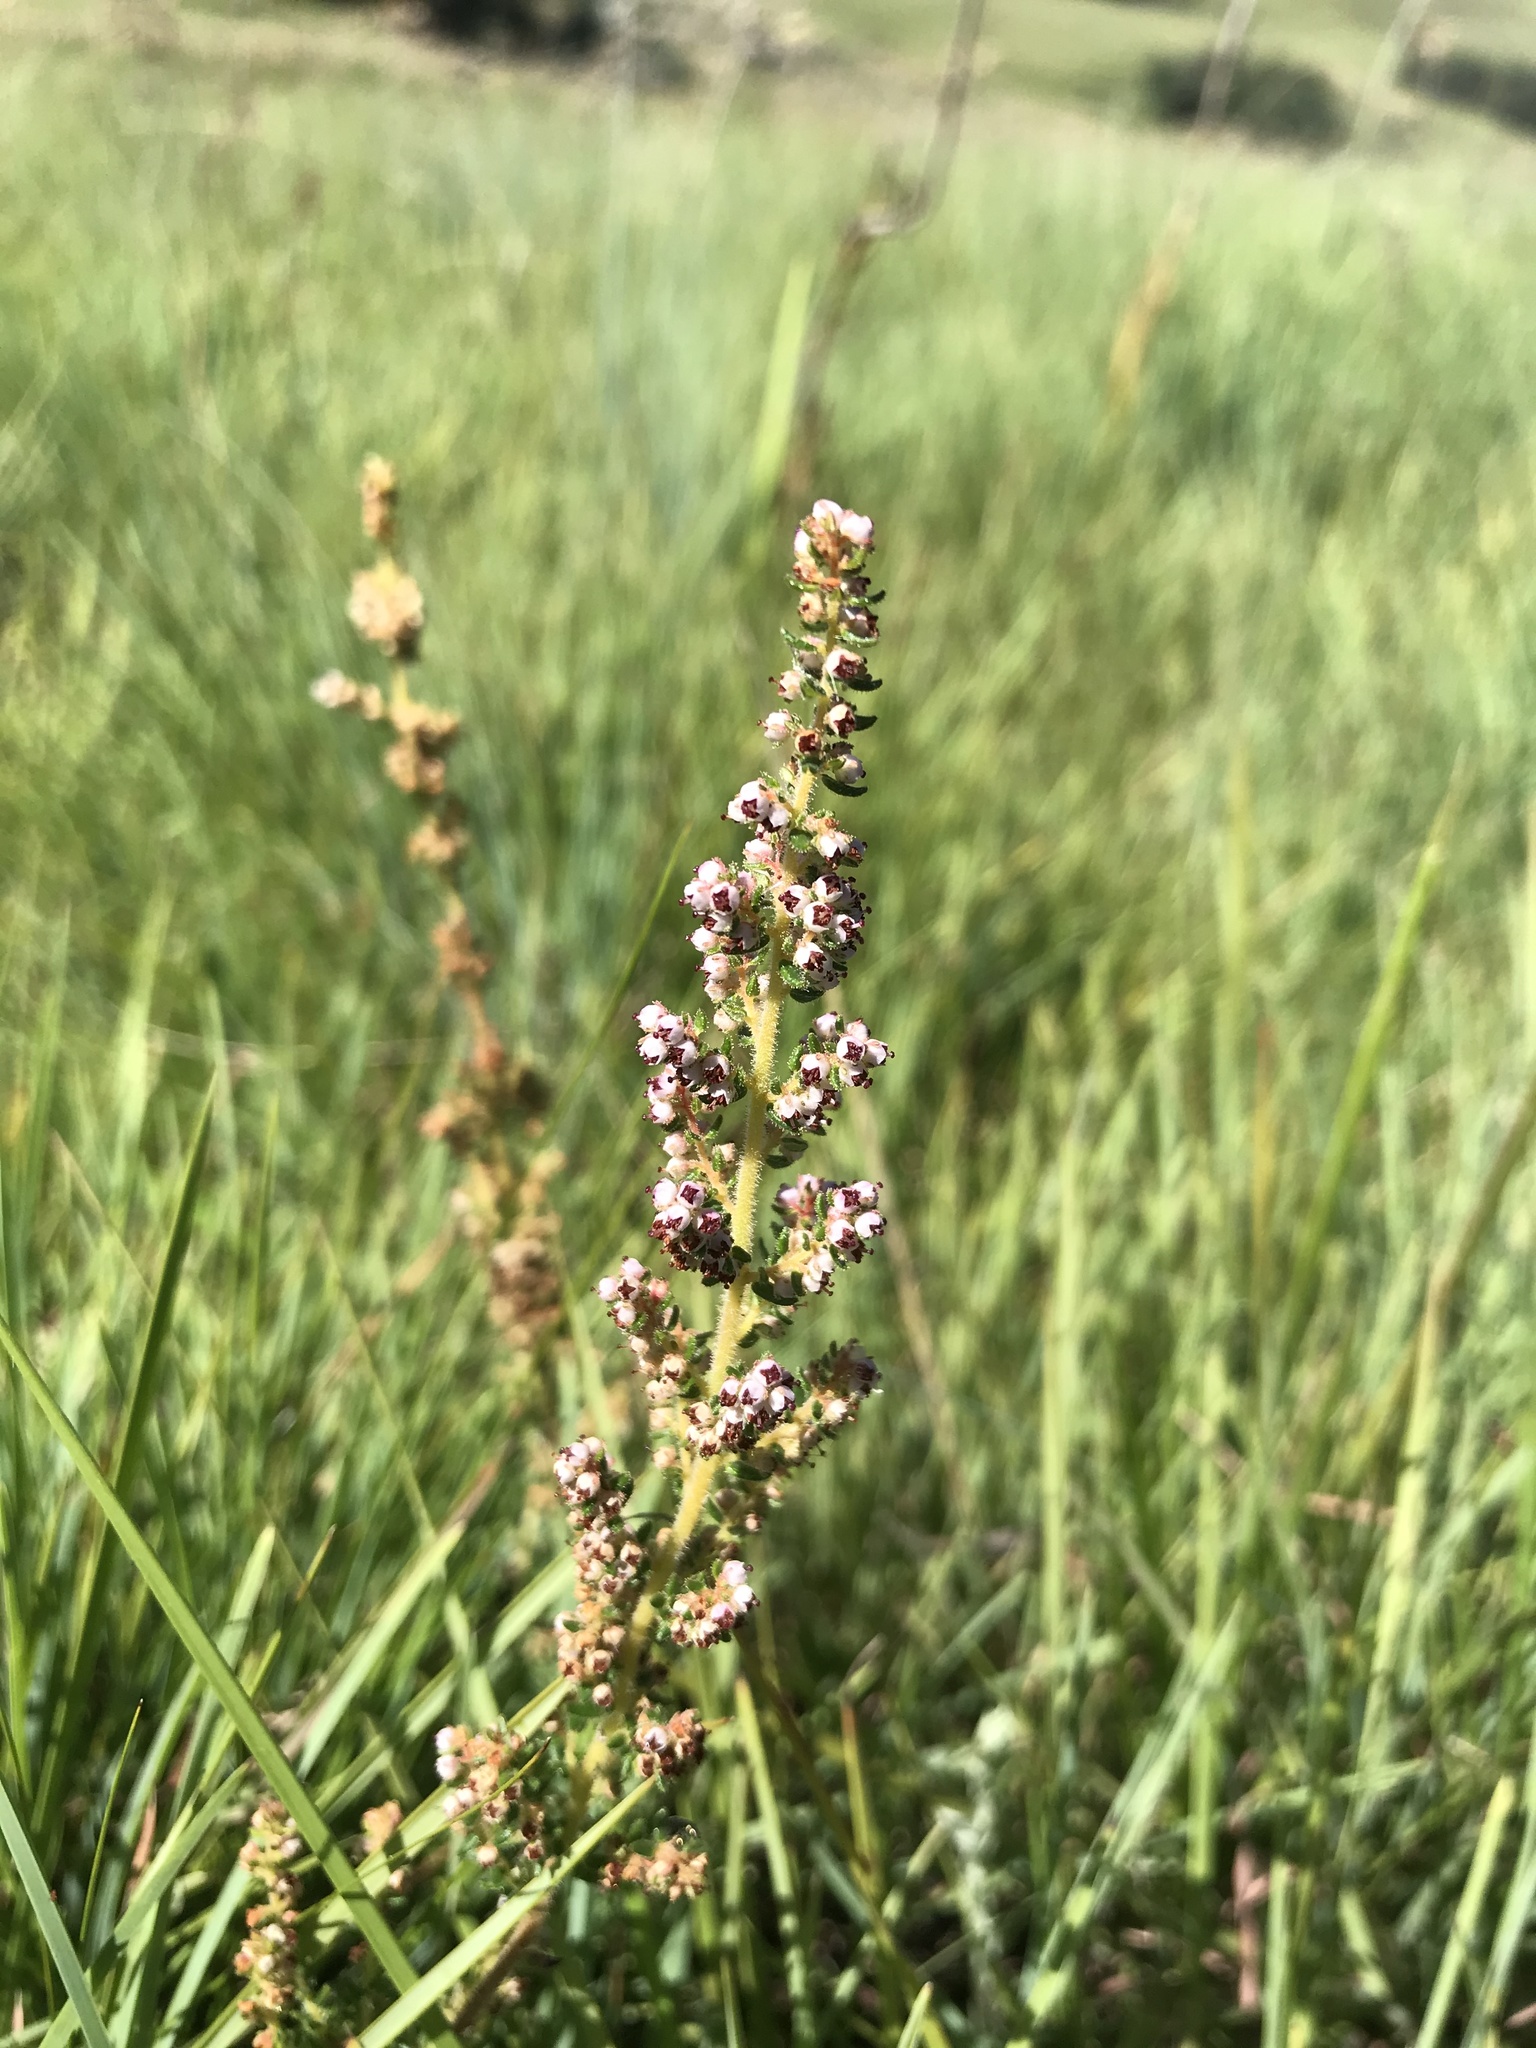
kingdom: Plantae
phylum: Tracheophyta
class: Magnoliopsida
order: Ericales
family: Ericaceae
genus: Erica
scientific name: Erica woodii
